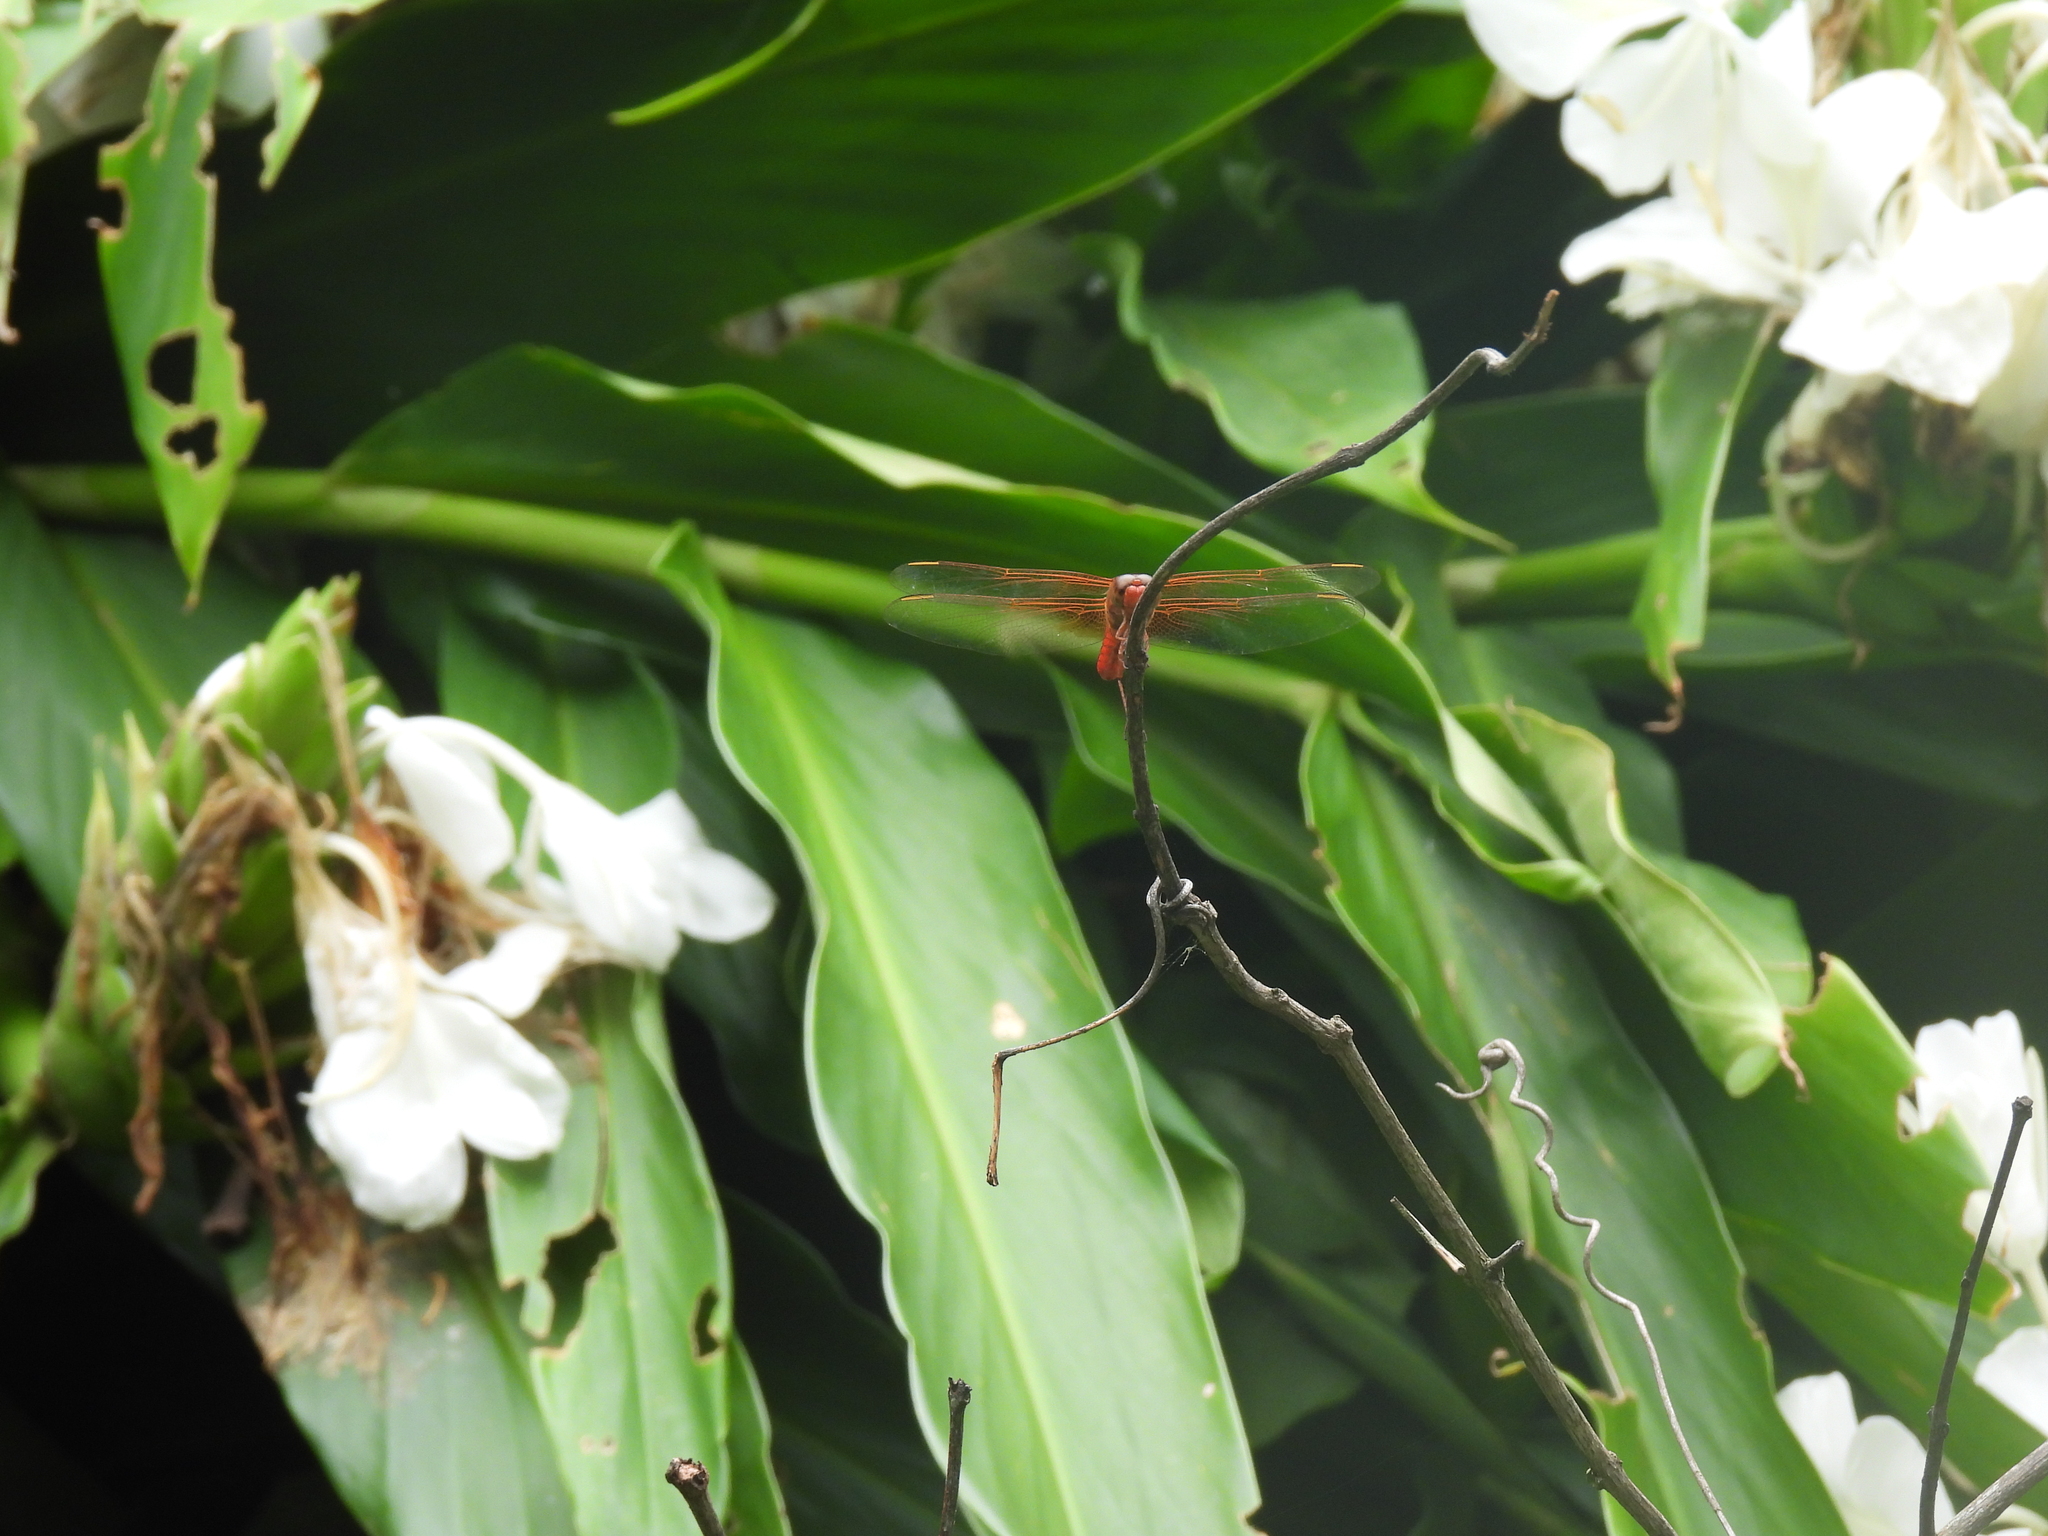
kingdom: Animalia
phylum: Arthropoda
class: Insecta
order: Odonata
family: Libellulidae
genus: Libellula
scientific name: Libellula croceipennis
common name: Neon skimmer
